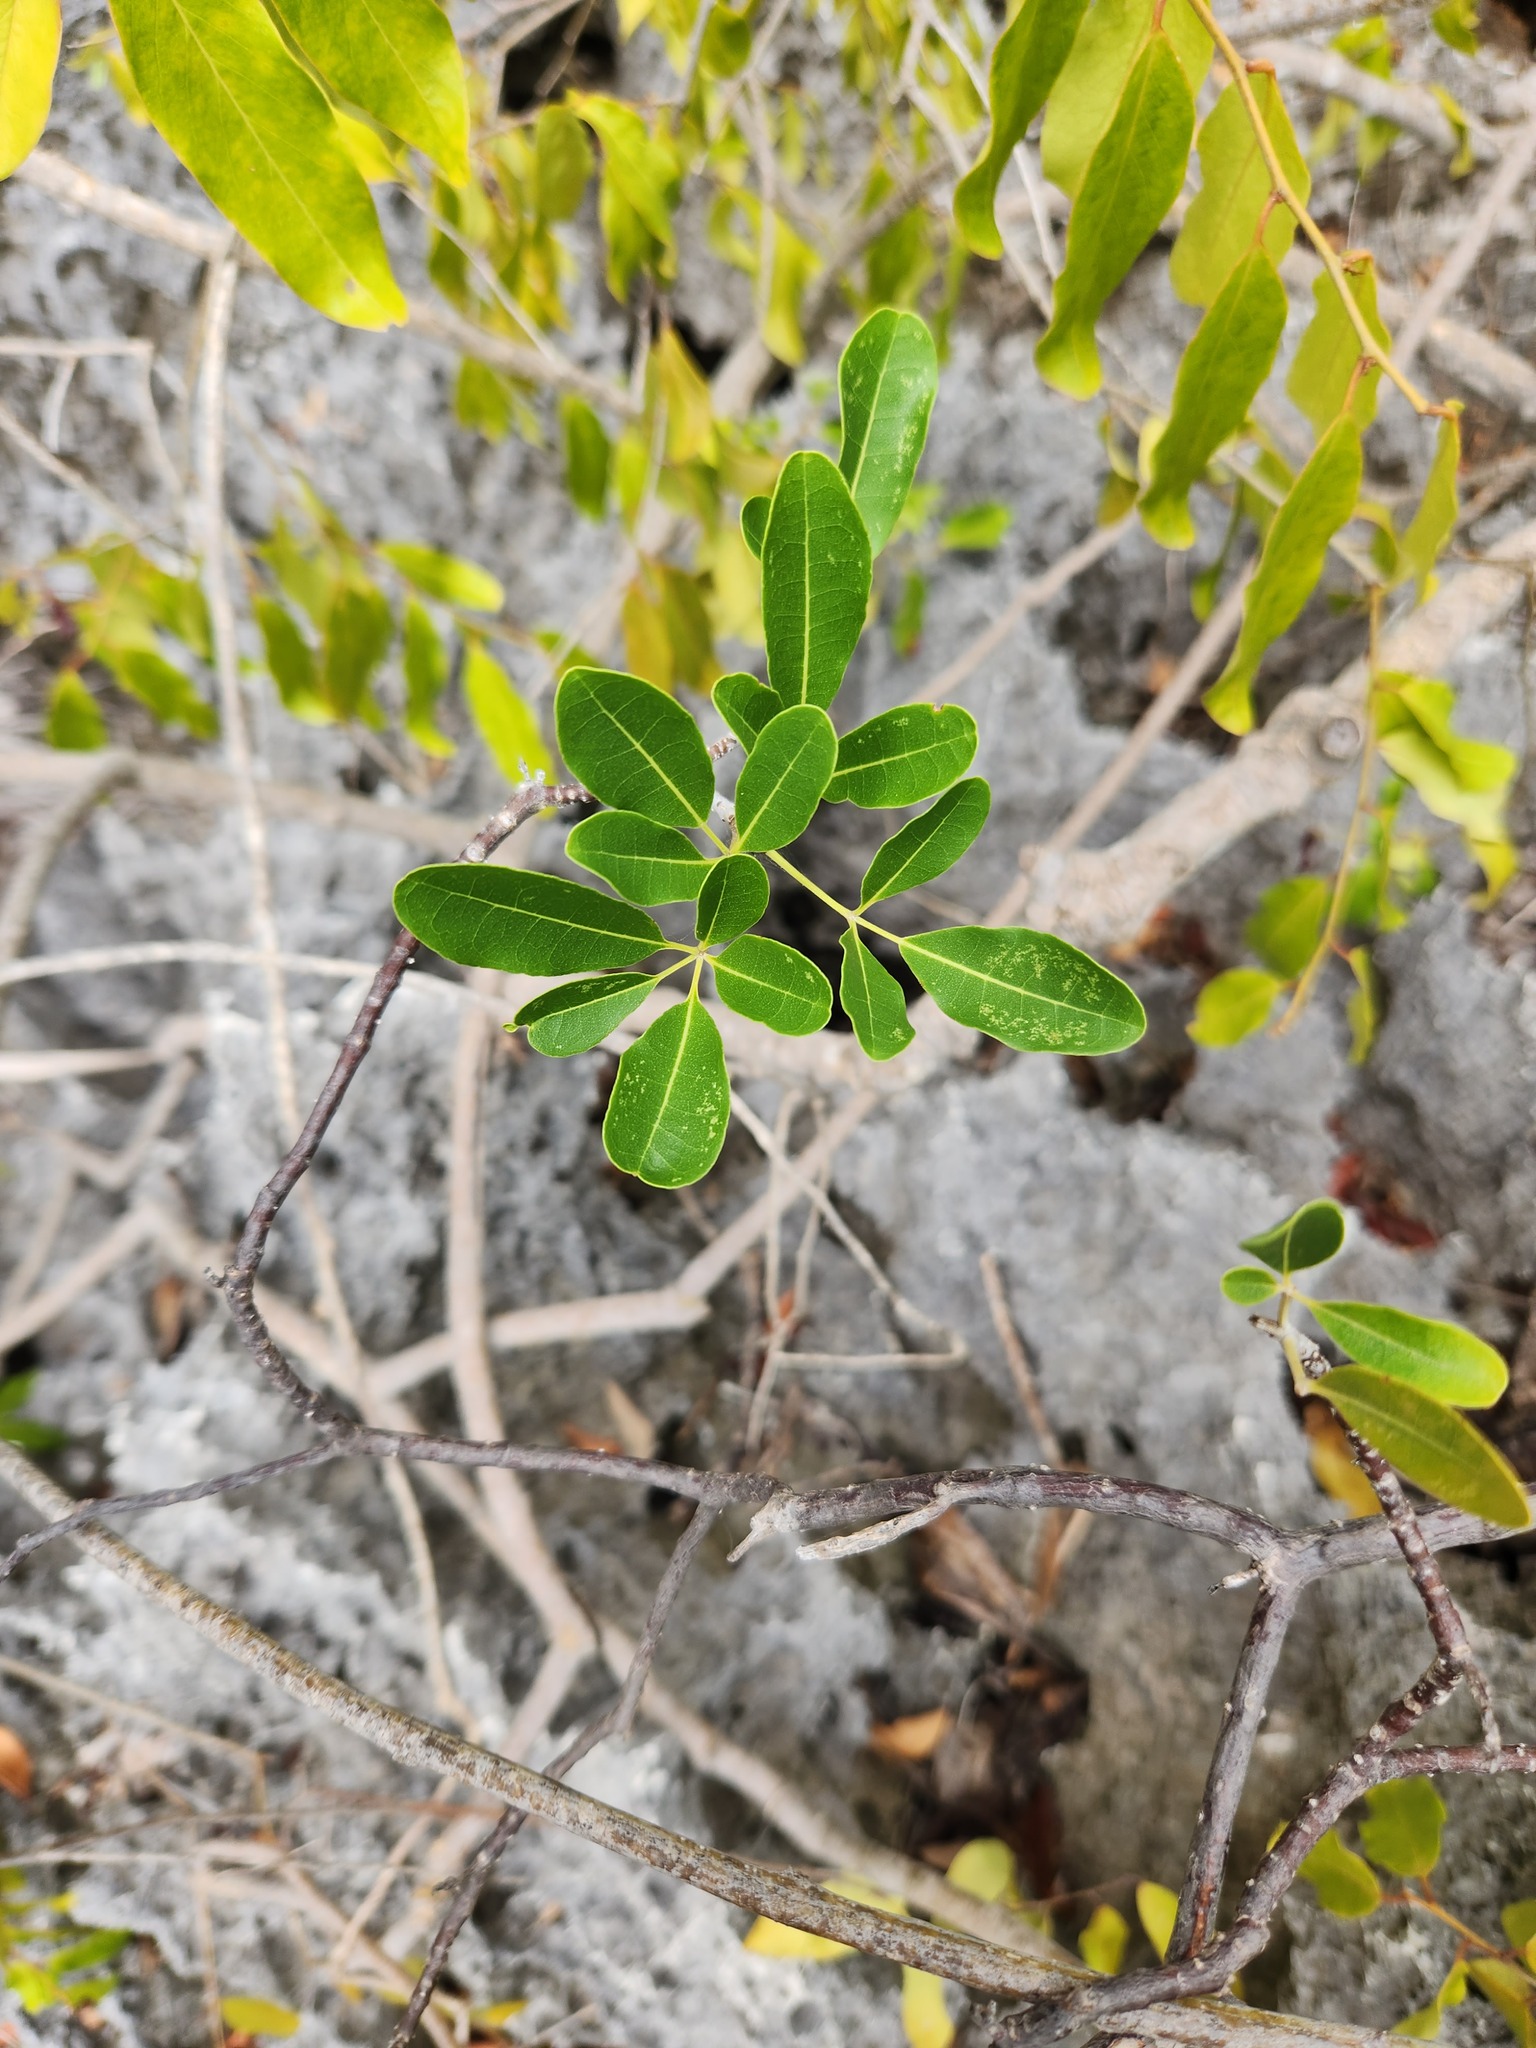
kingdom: Plantae
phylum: Tracheophyta
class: Magnoliopsida
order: Lamiales
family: Bignoniaceae
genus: Tabebuia
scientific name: Tabebuia heterophylla
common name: White cedar
